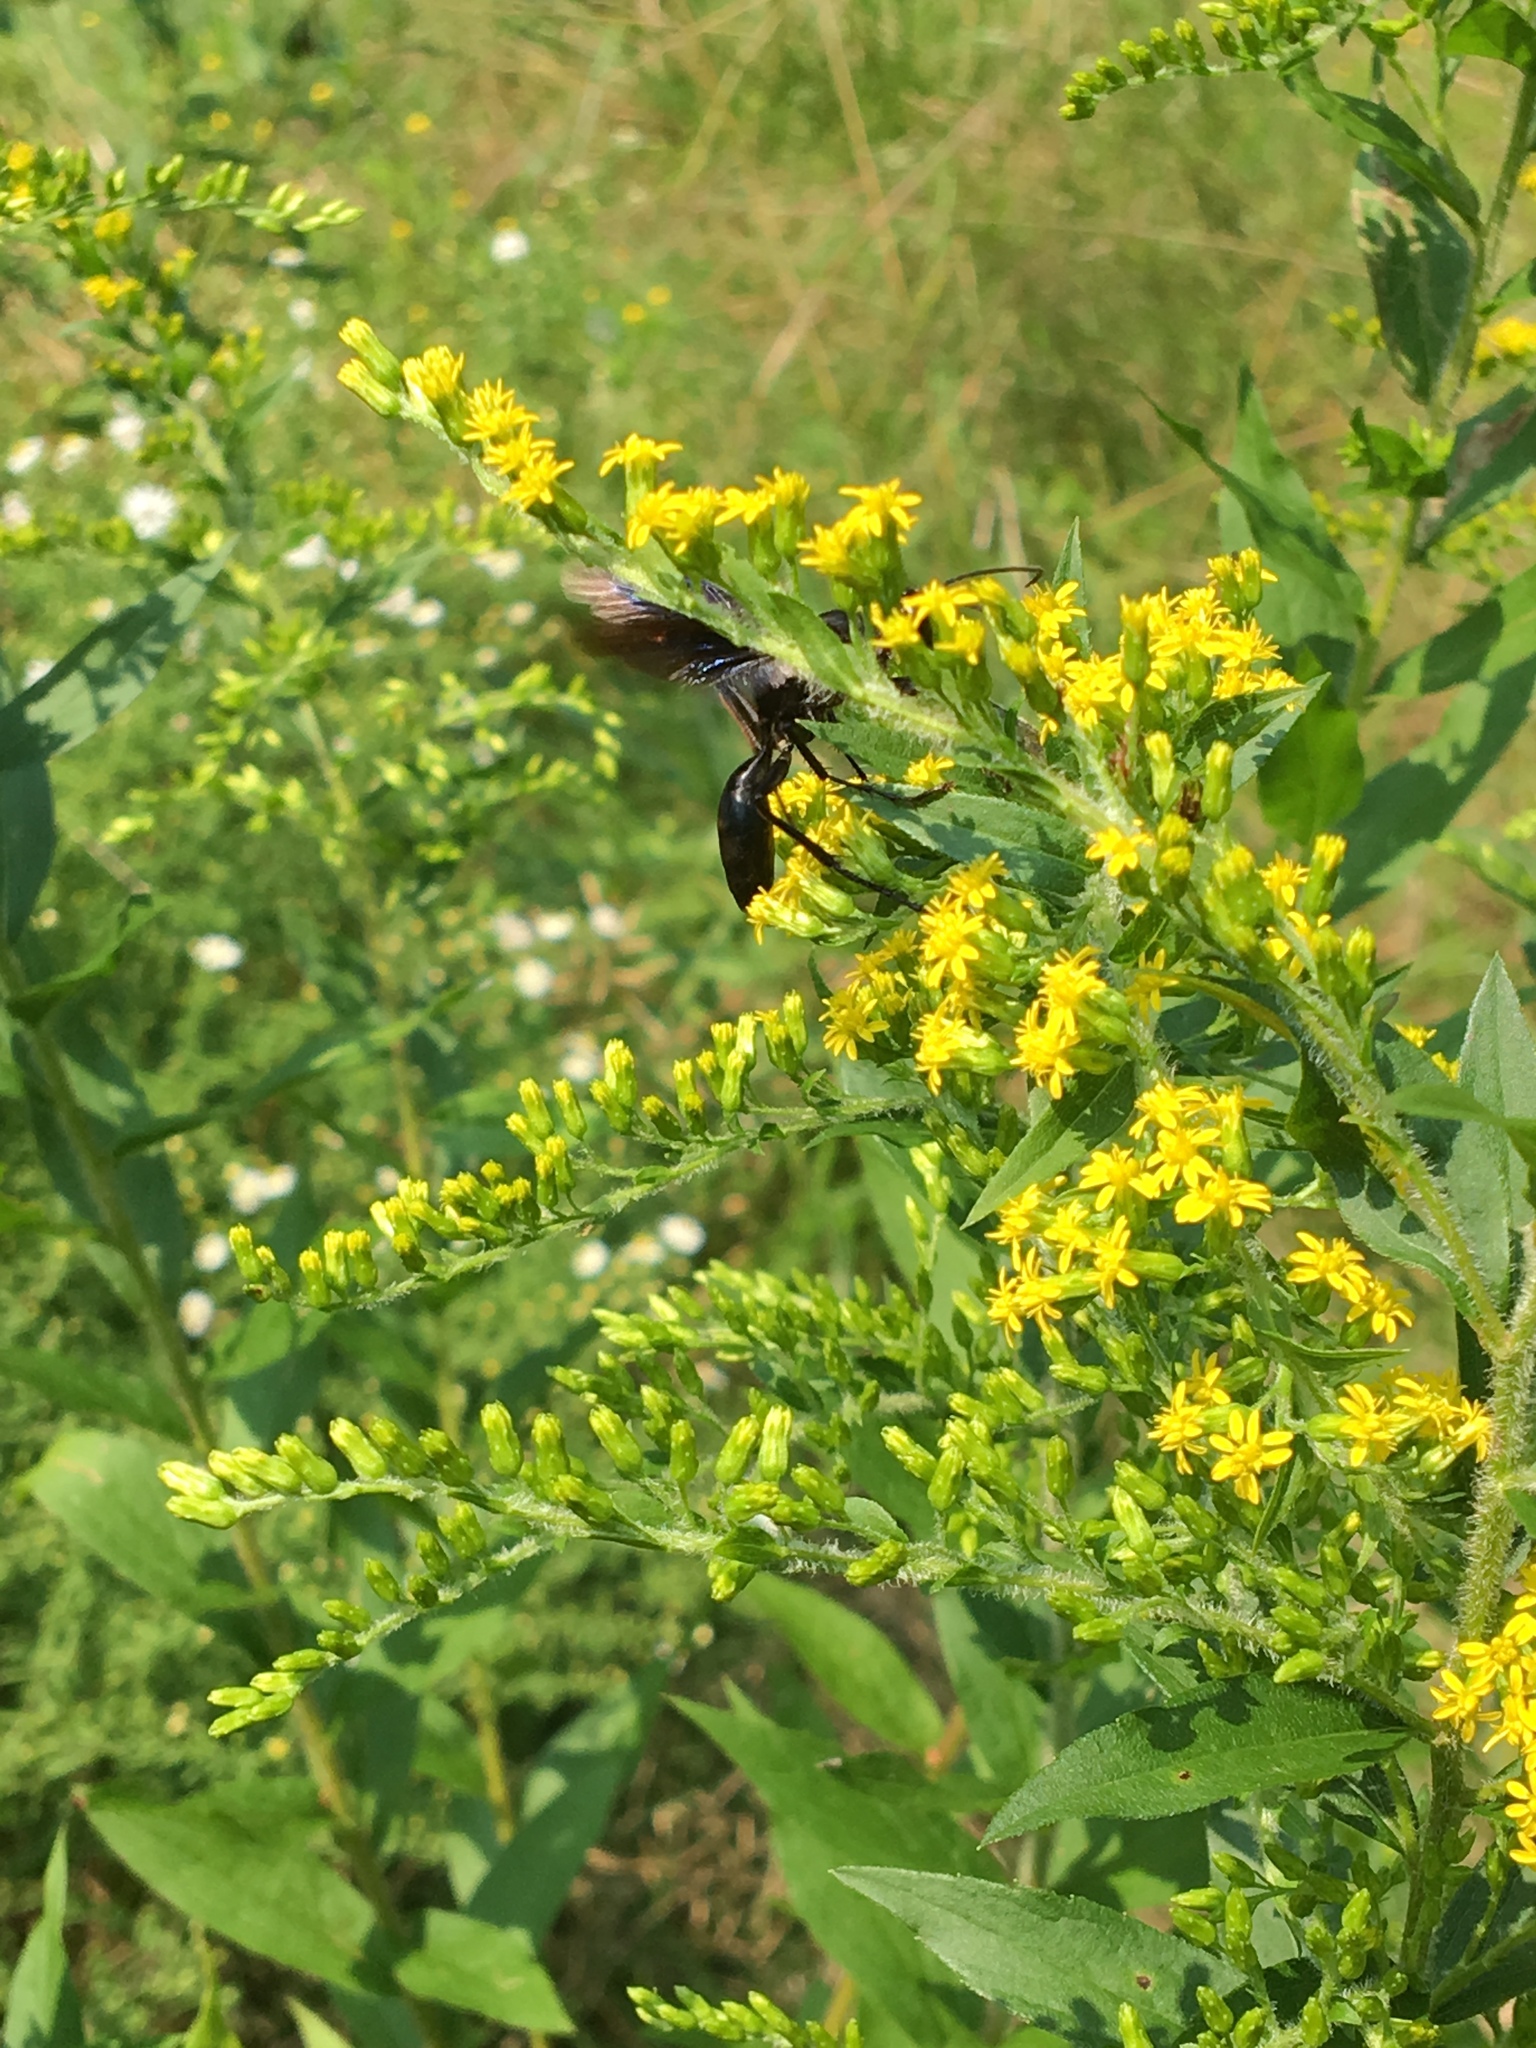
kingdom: Animalia
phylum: Arthropoda
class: Insecta
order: Hymenoptera
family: Sphecidae
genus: Sphex
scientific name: Sphex pensylvanicus
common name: Great black digger wasp
